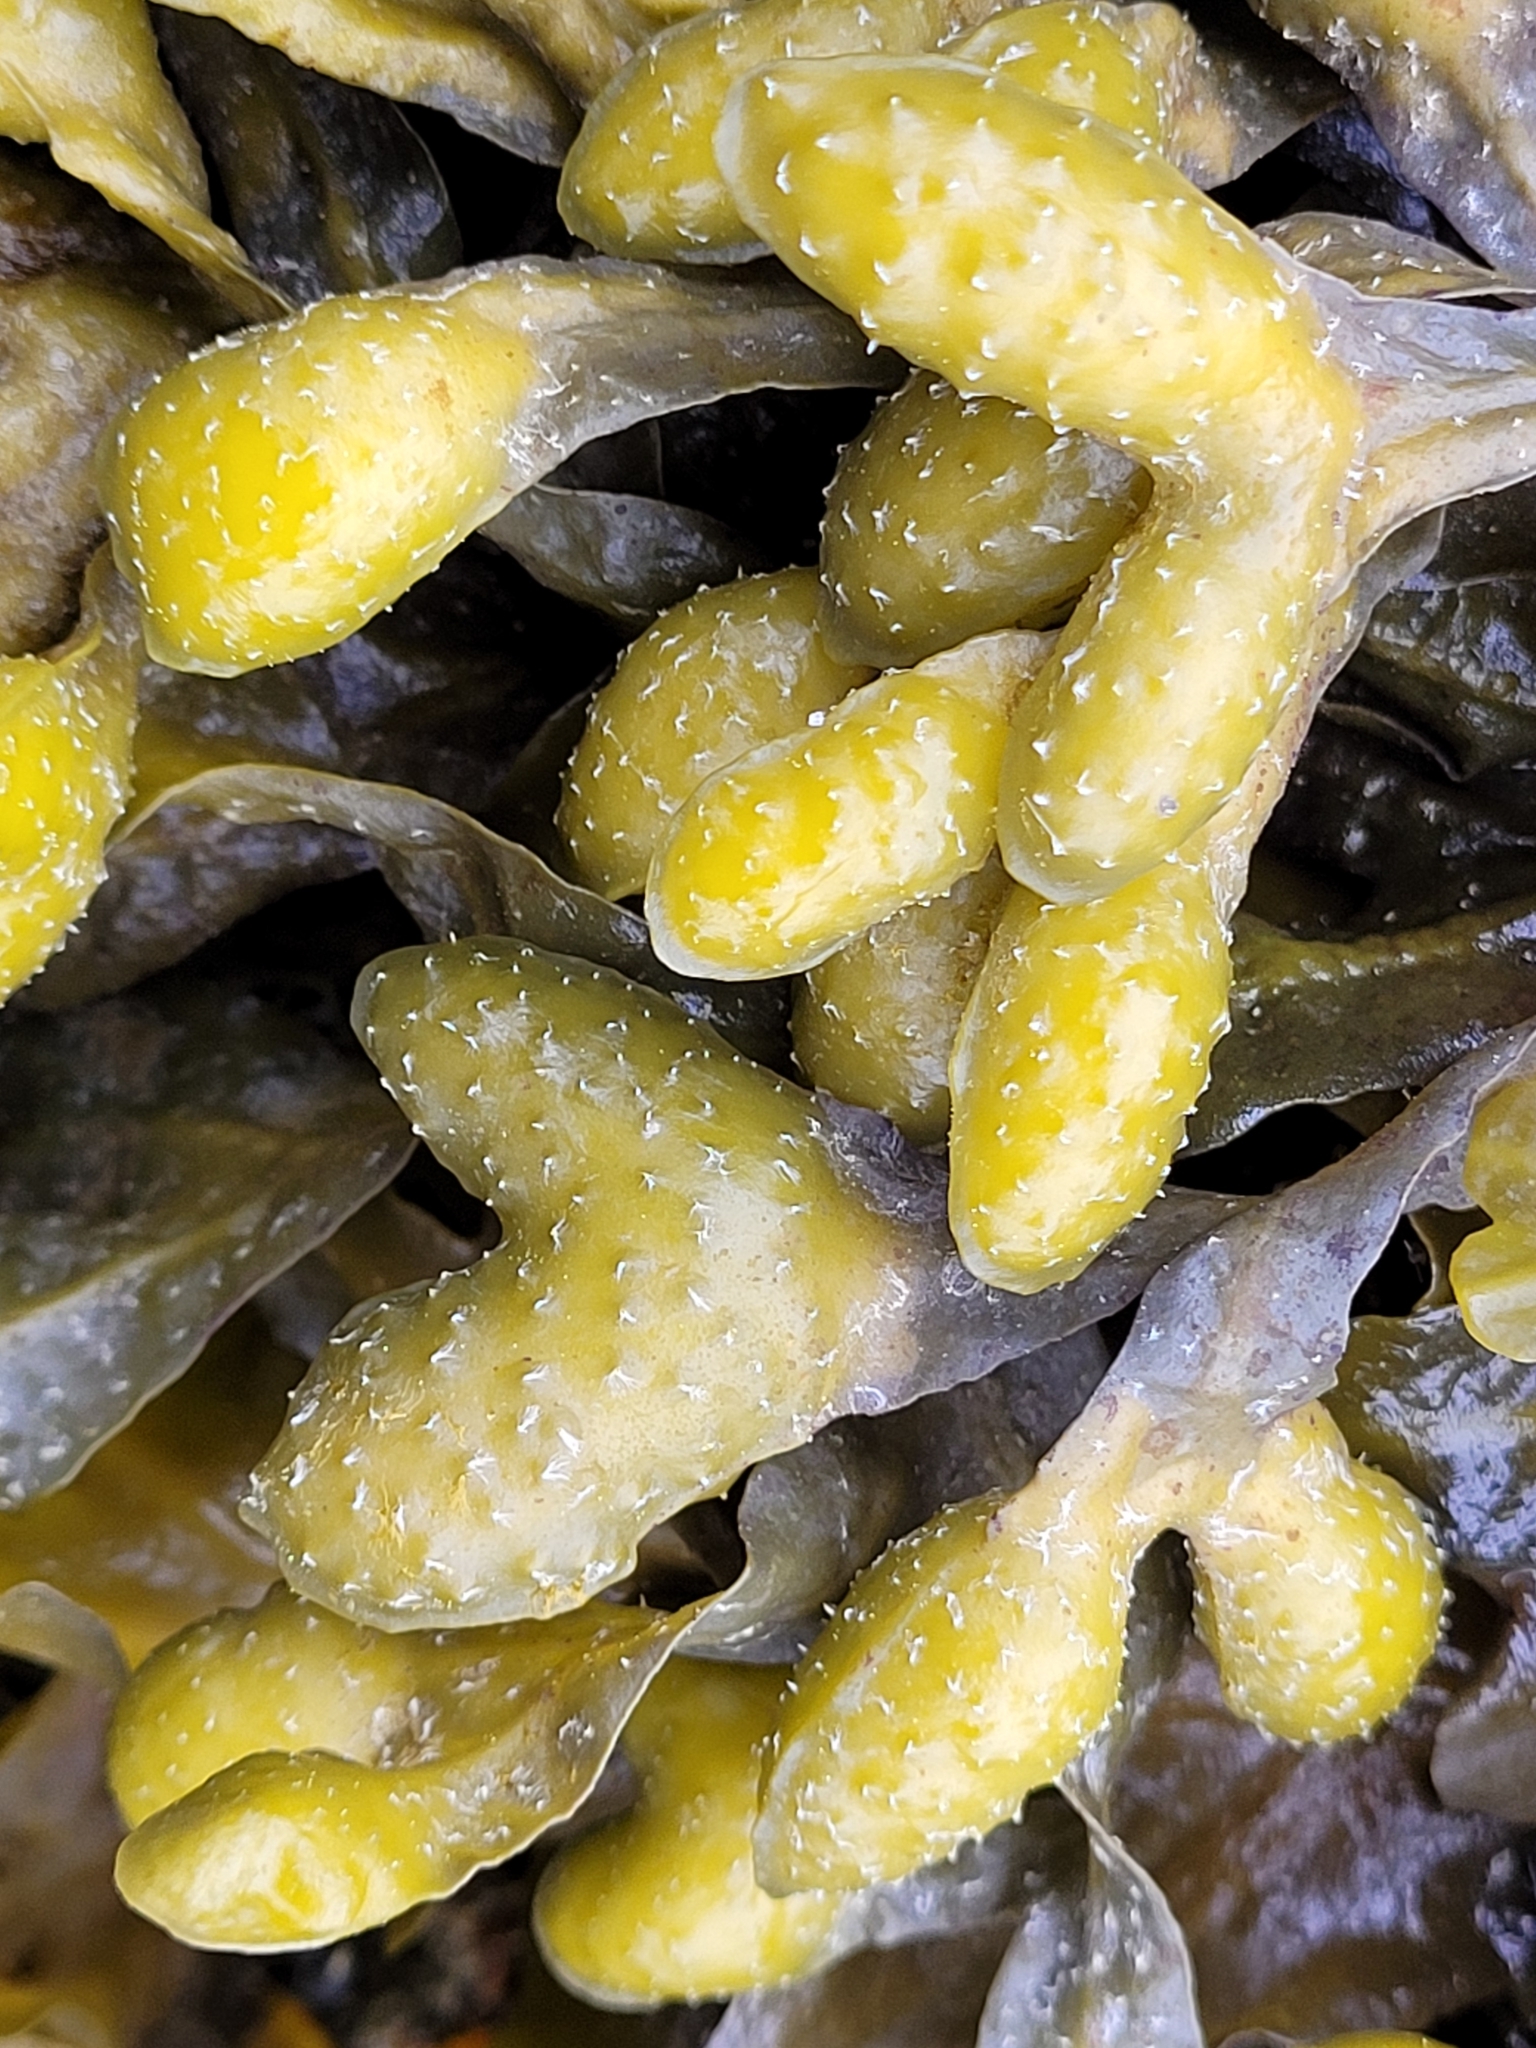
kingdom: Chromista
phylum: Ochrophyta
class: Phaeophyceae
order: Fucales
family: Fucaceae
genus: Fucus
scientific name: Fucus distichus
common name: Rockweed
